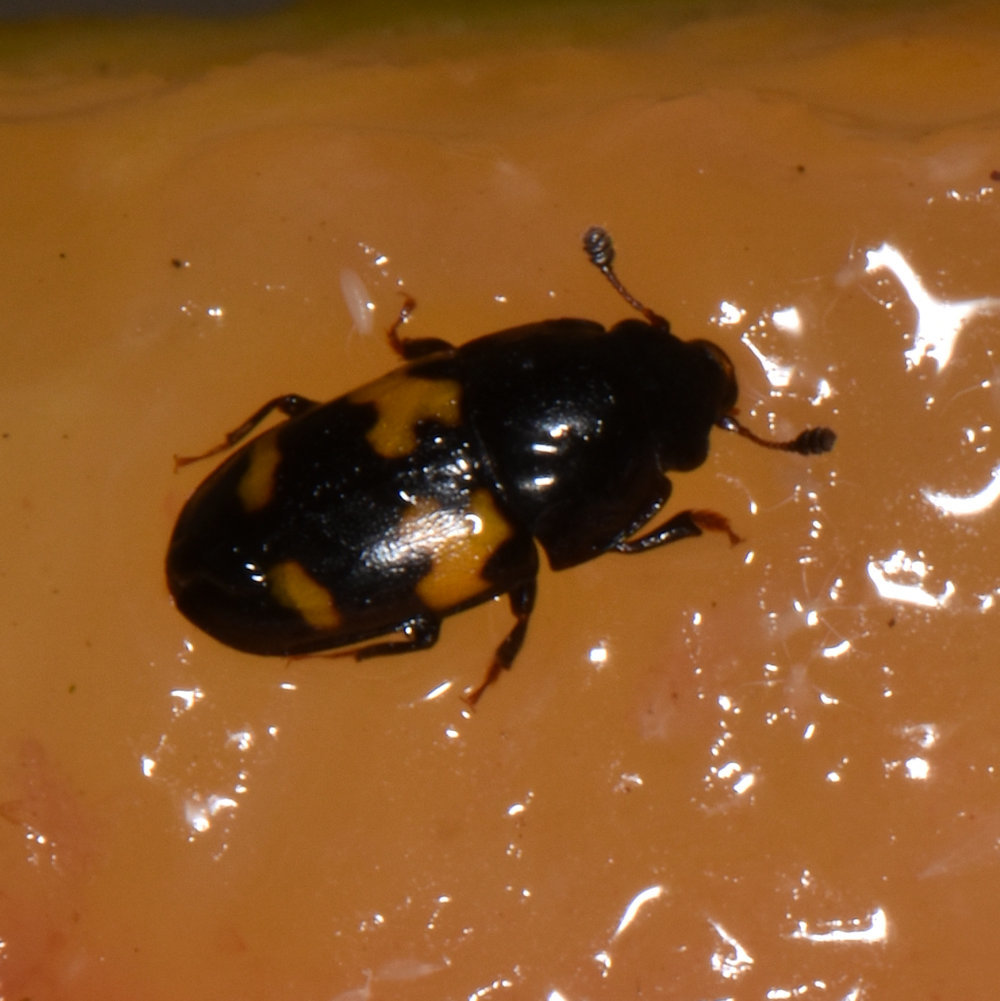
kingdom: Animalia
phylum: Arthropoda
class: Insecta
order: Coleoptera
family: Nitidulidae
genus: Glischrochilus
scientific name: Glischrochilus fasciatus
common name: Picnic beetle
